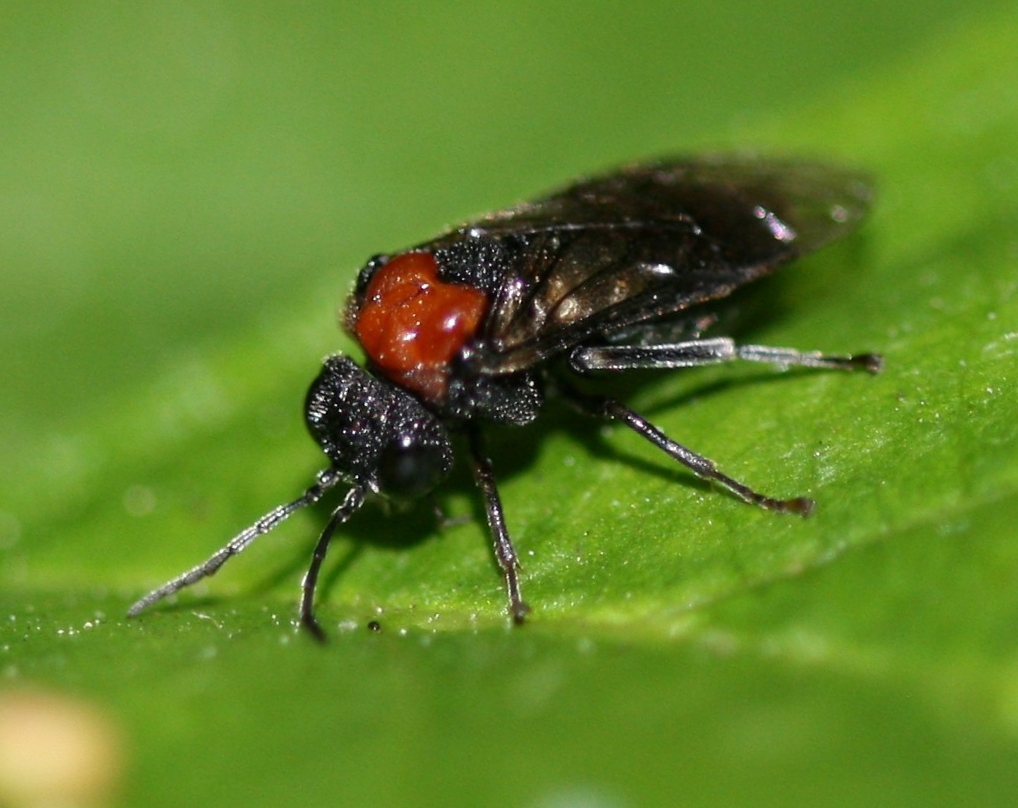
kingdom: Animalia
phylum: Arthropoda
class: Insecta
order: Hymenoptera
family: Tenthredinidae
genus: Eriocampa
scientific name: Eriocampa ovata
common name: Alder wooly sawfly
